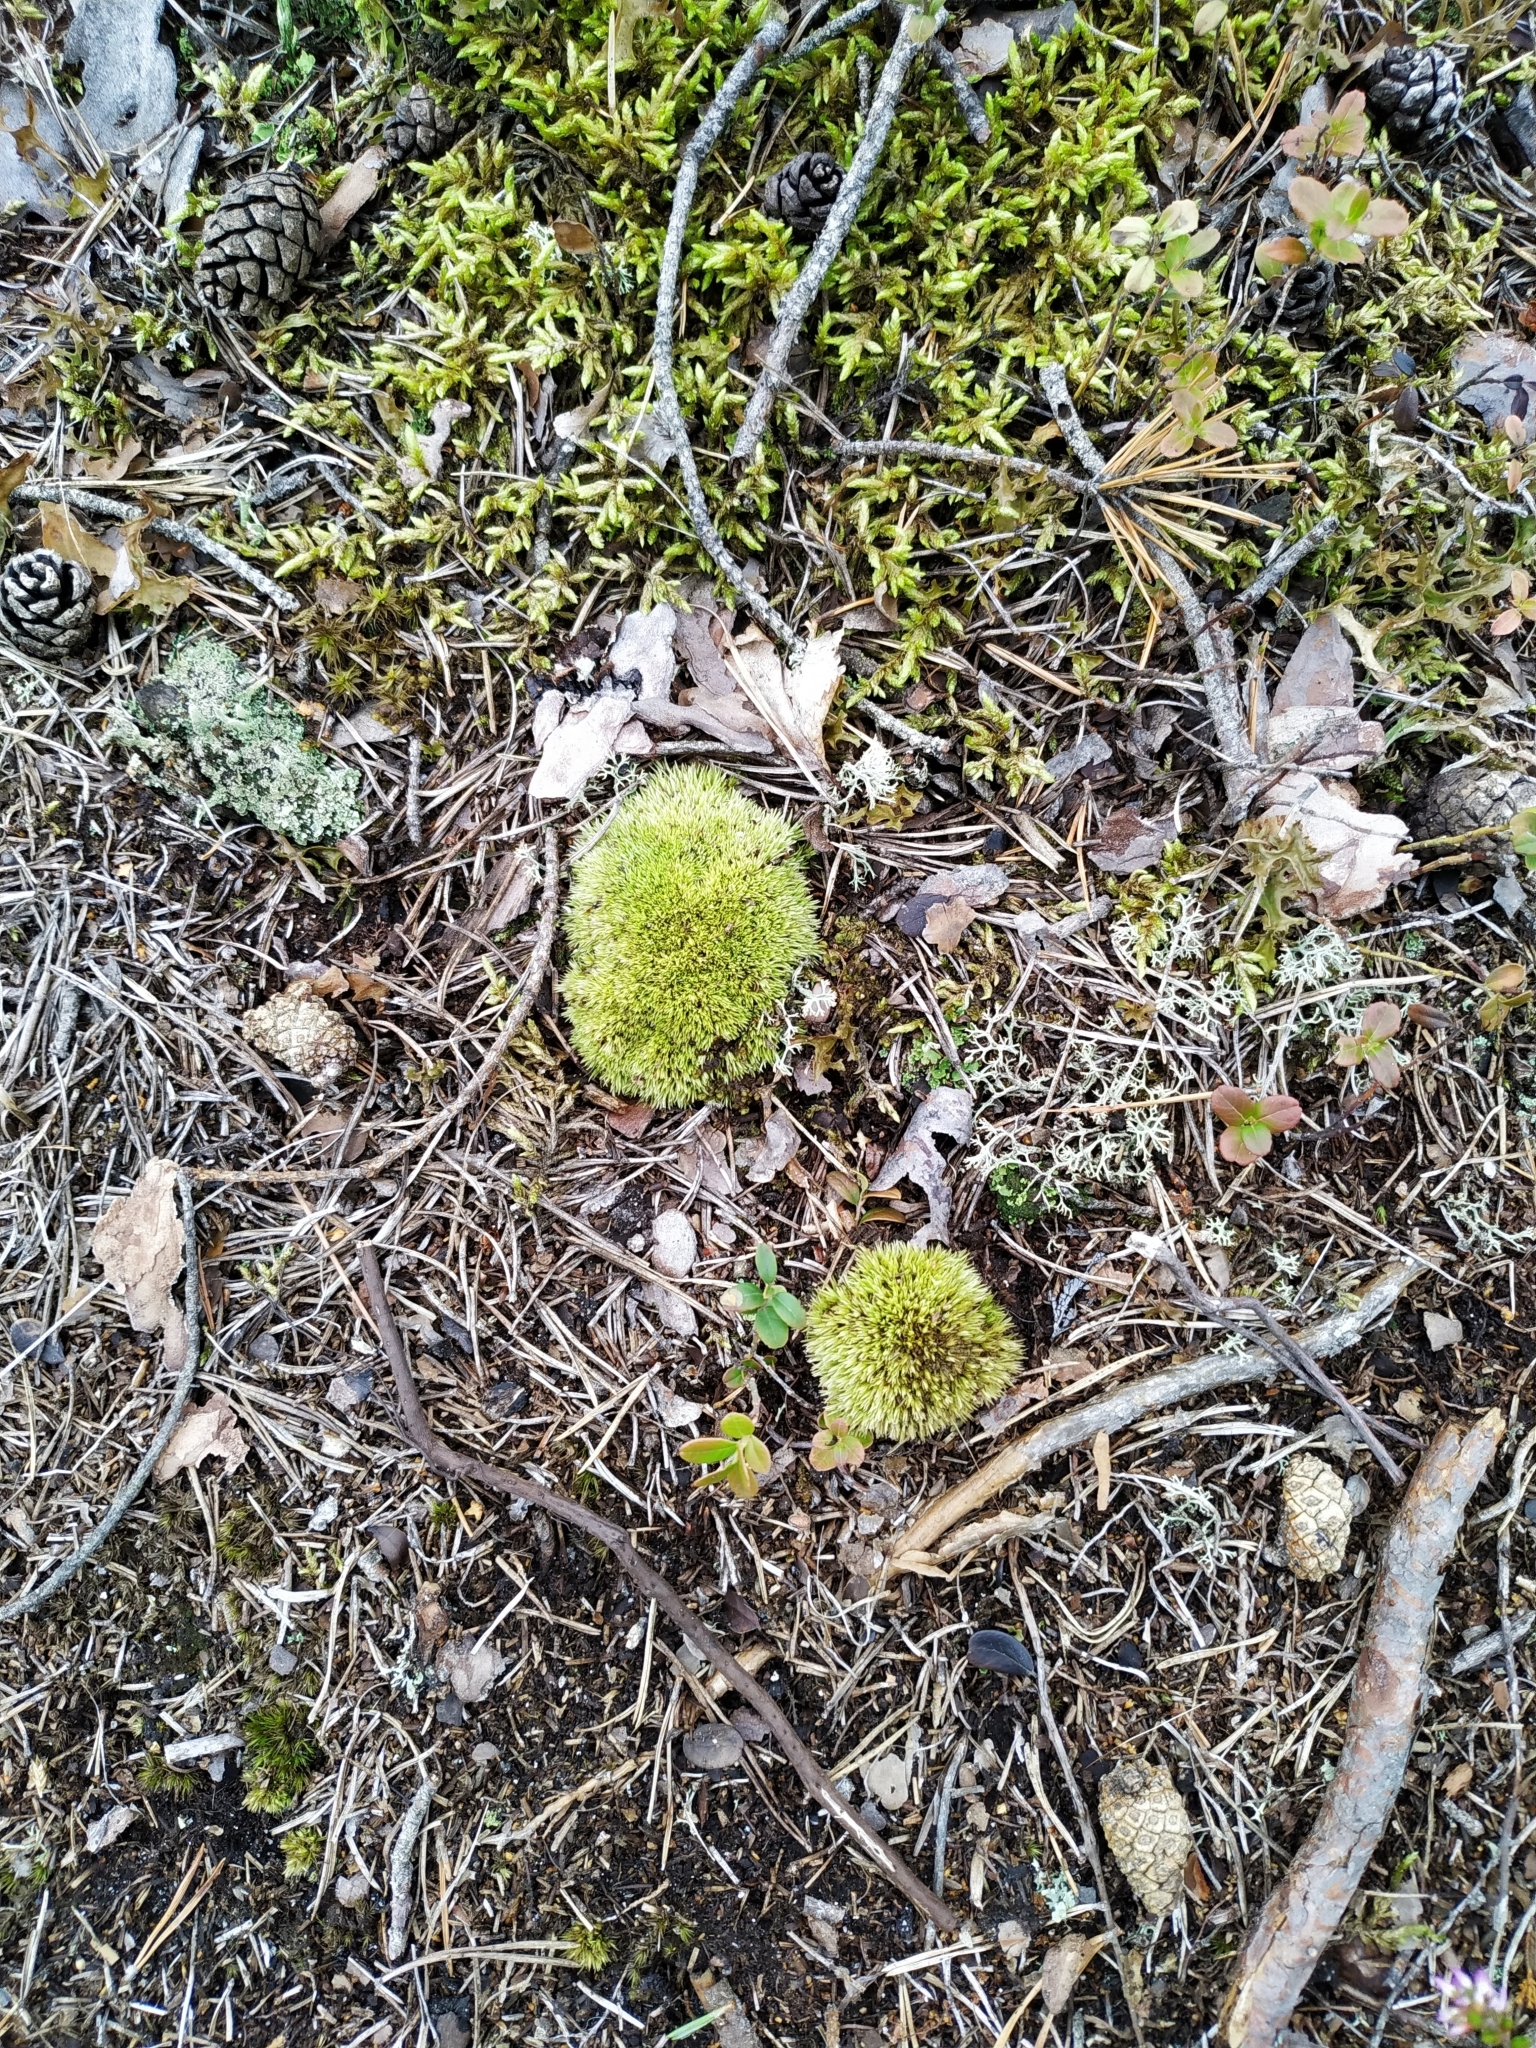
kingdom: Plantae
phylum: Bryophyta
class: Bryopsida
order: Dicranales
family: Leucobryaceae
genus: Leucobryum
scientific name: Leucobryum glaucum
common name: Large white-moss
